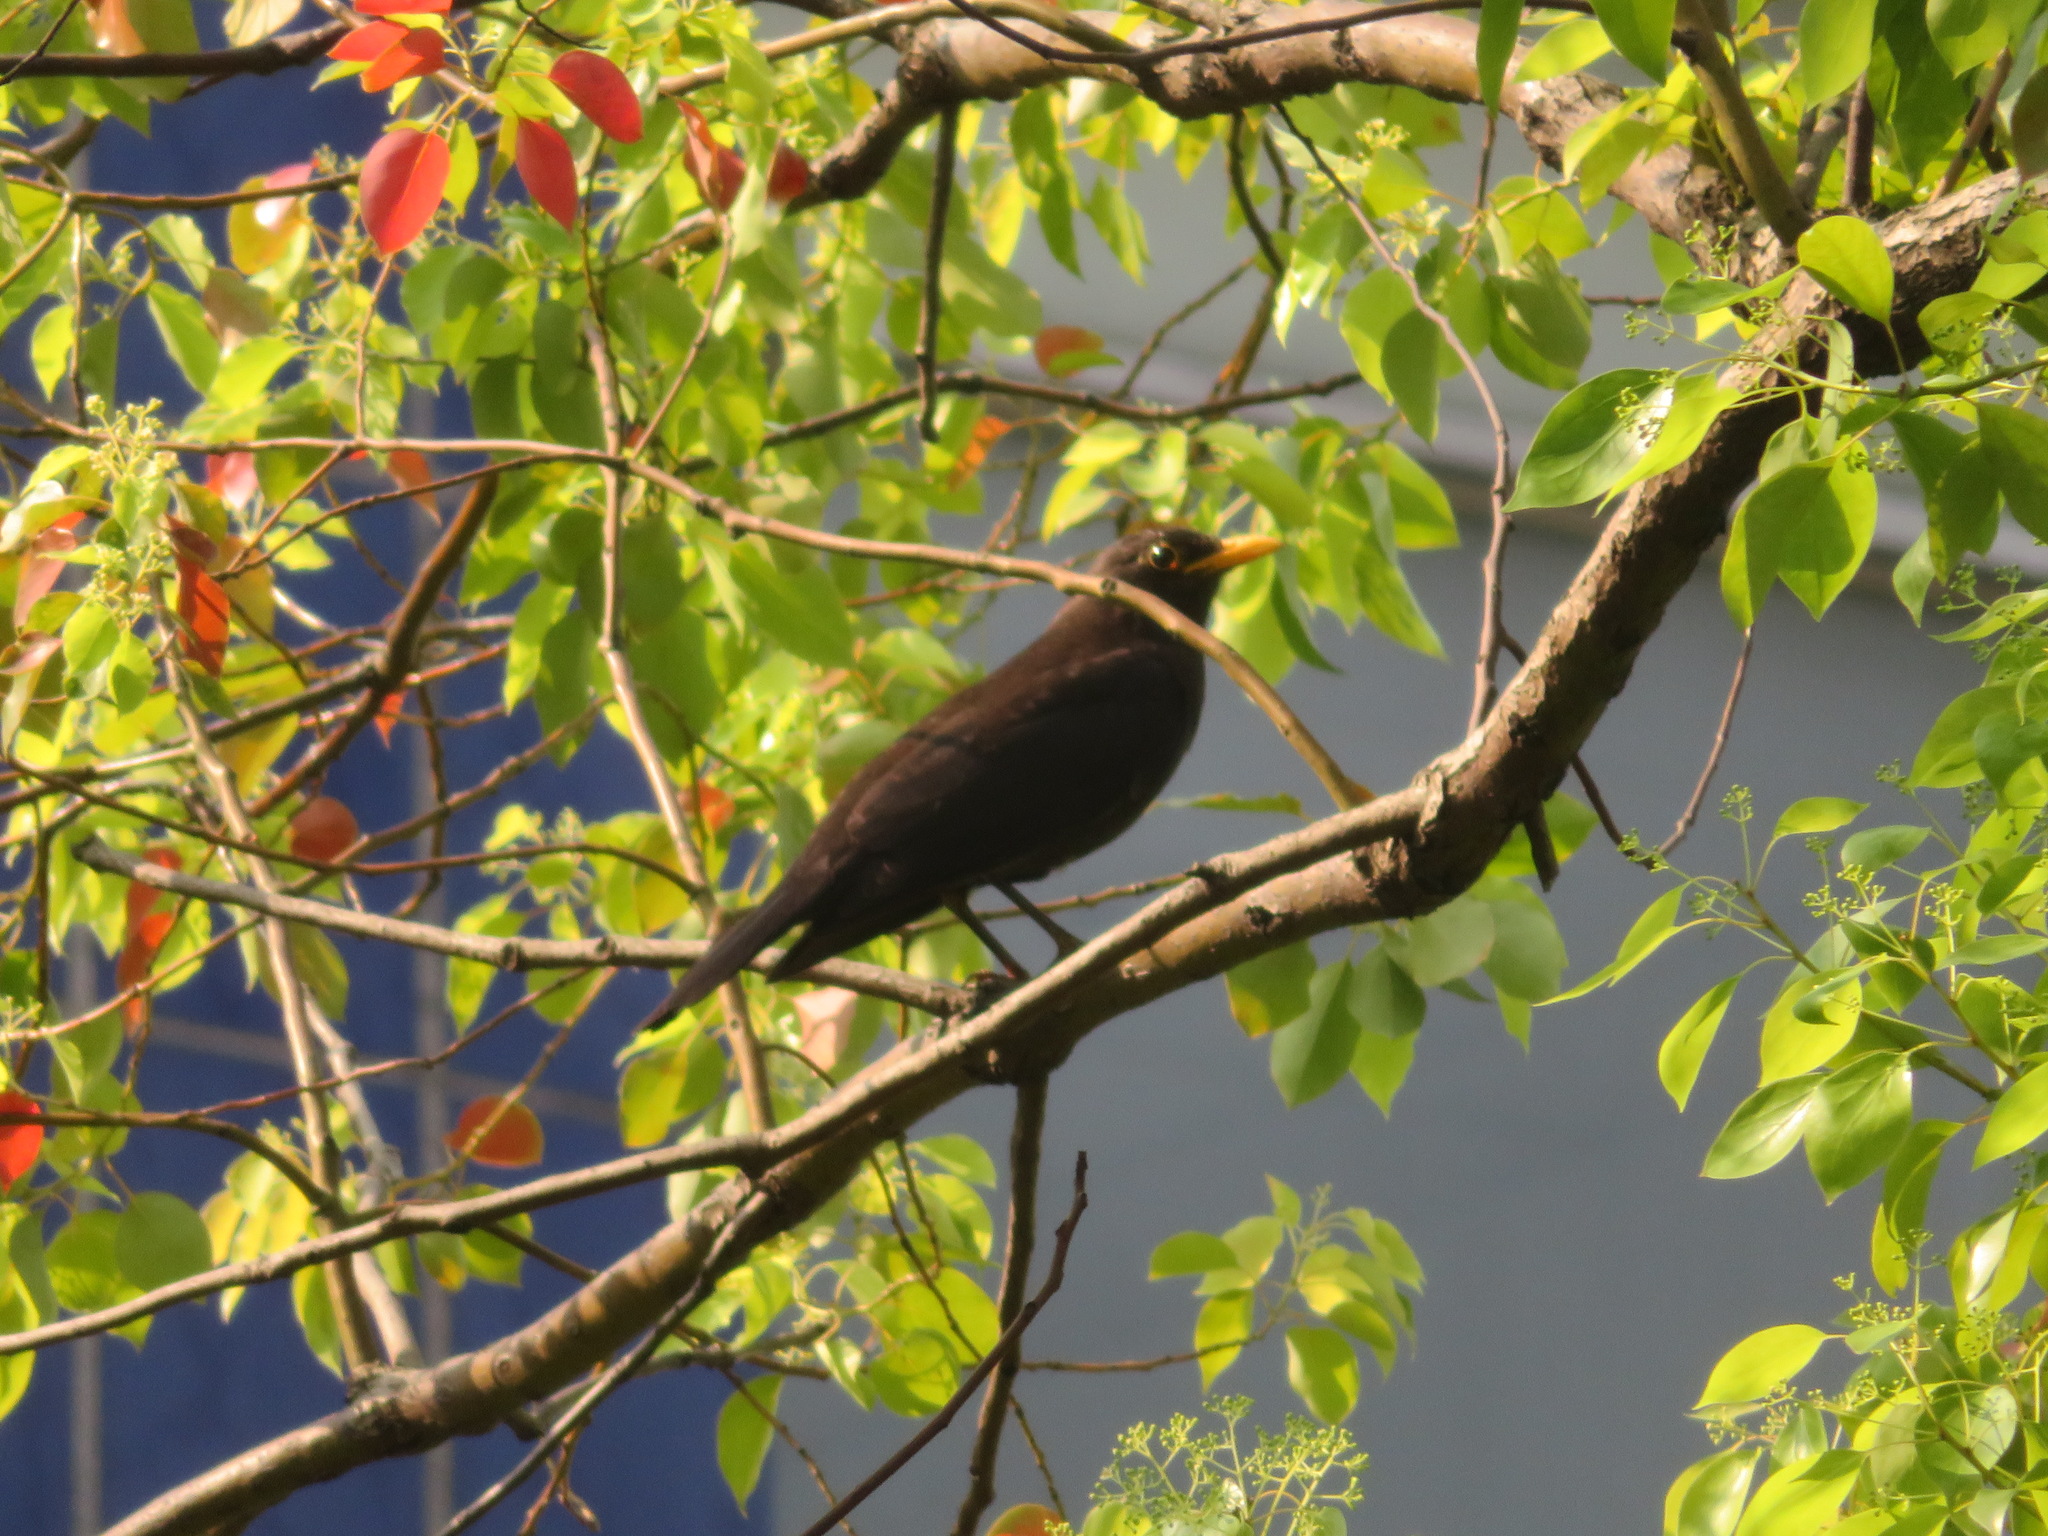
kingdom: Animalia
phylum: Chordata
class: Aves
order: Passeriformes
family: Turdidae
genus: Turdus
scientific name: Turdus mandarinus
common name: Chinese blackbird
